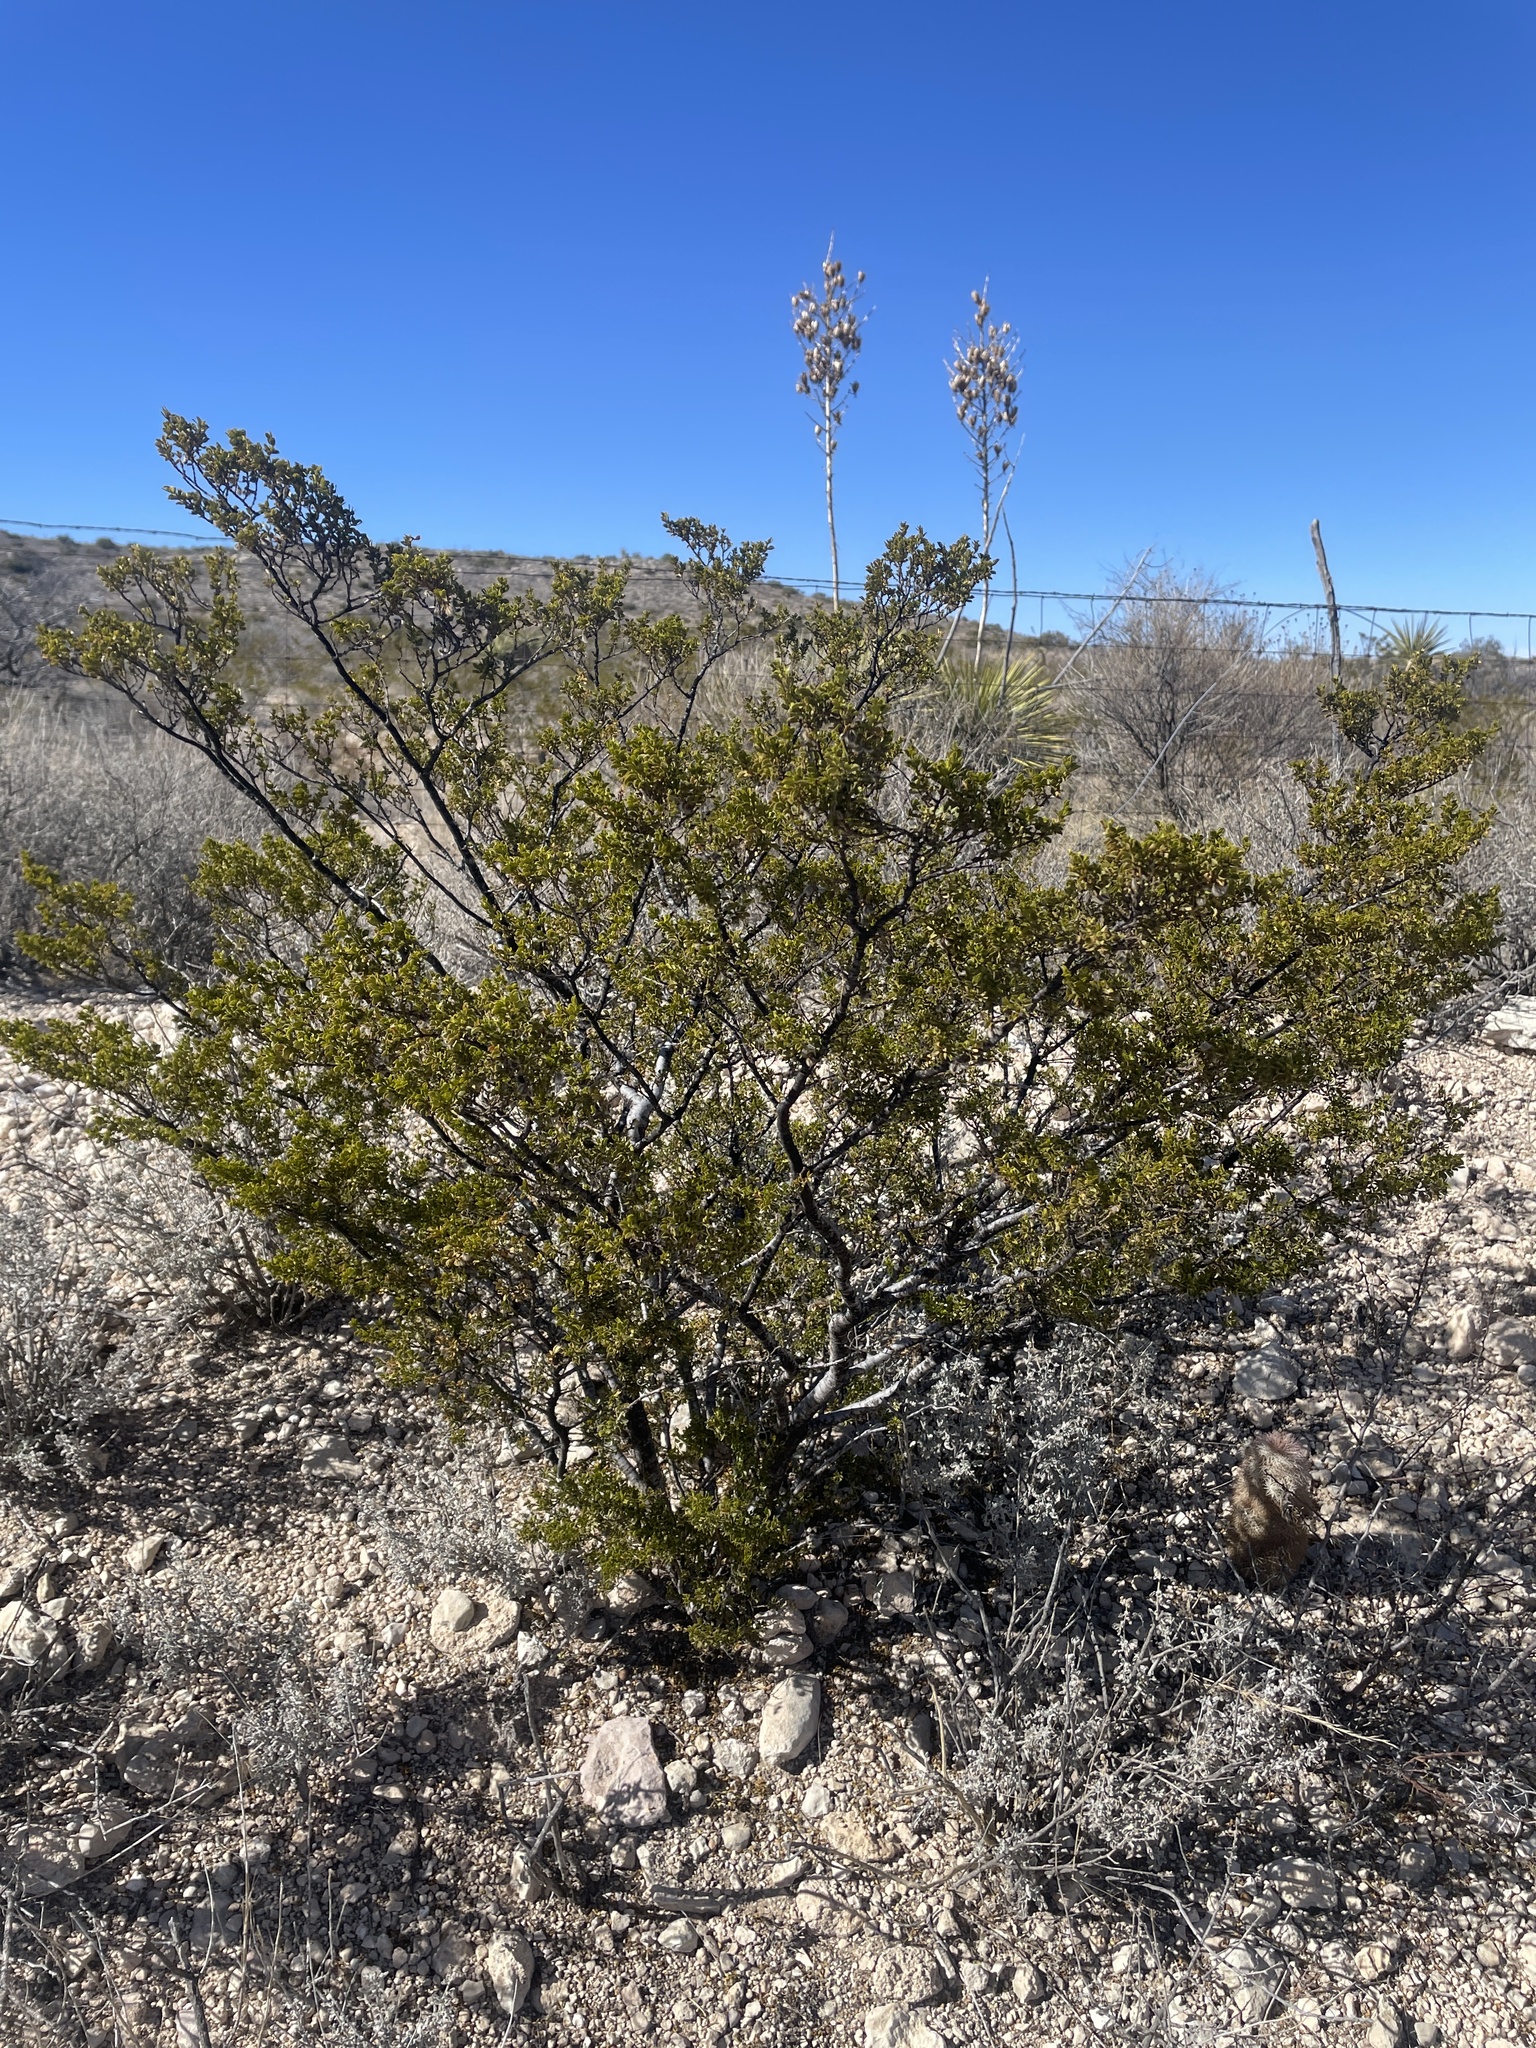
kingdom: Plantae
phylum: Tracheophyta
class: Magnoliopsida
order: Zygophyllales
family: Zygophyllaceae
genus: Larrea
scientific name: Larrea tridentata
